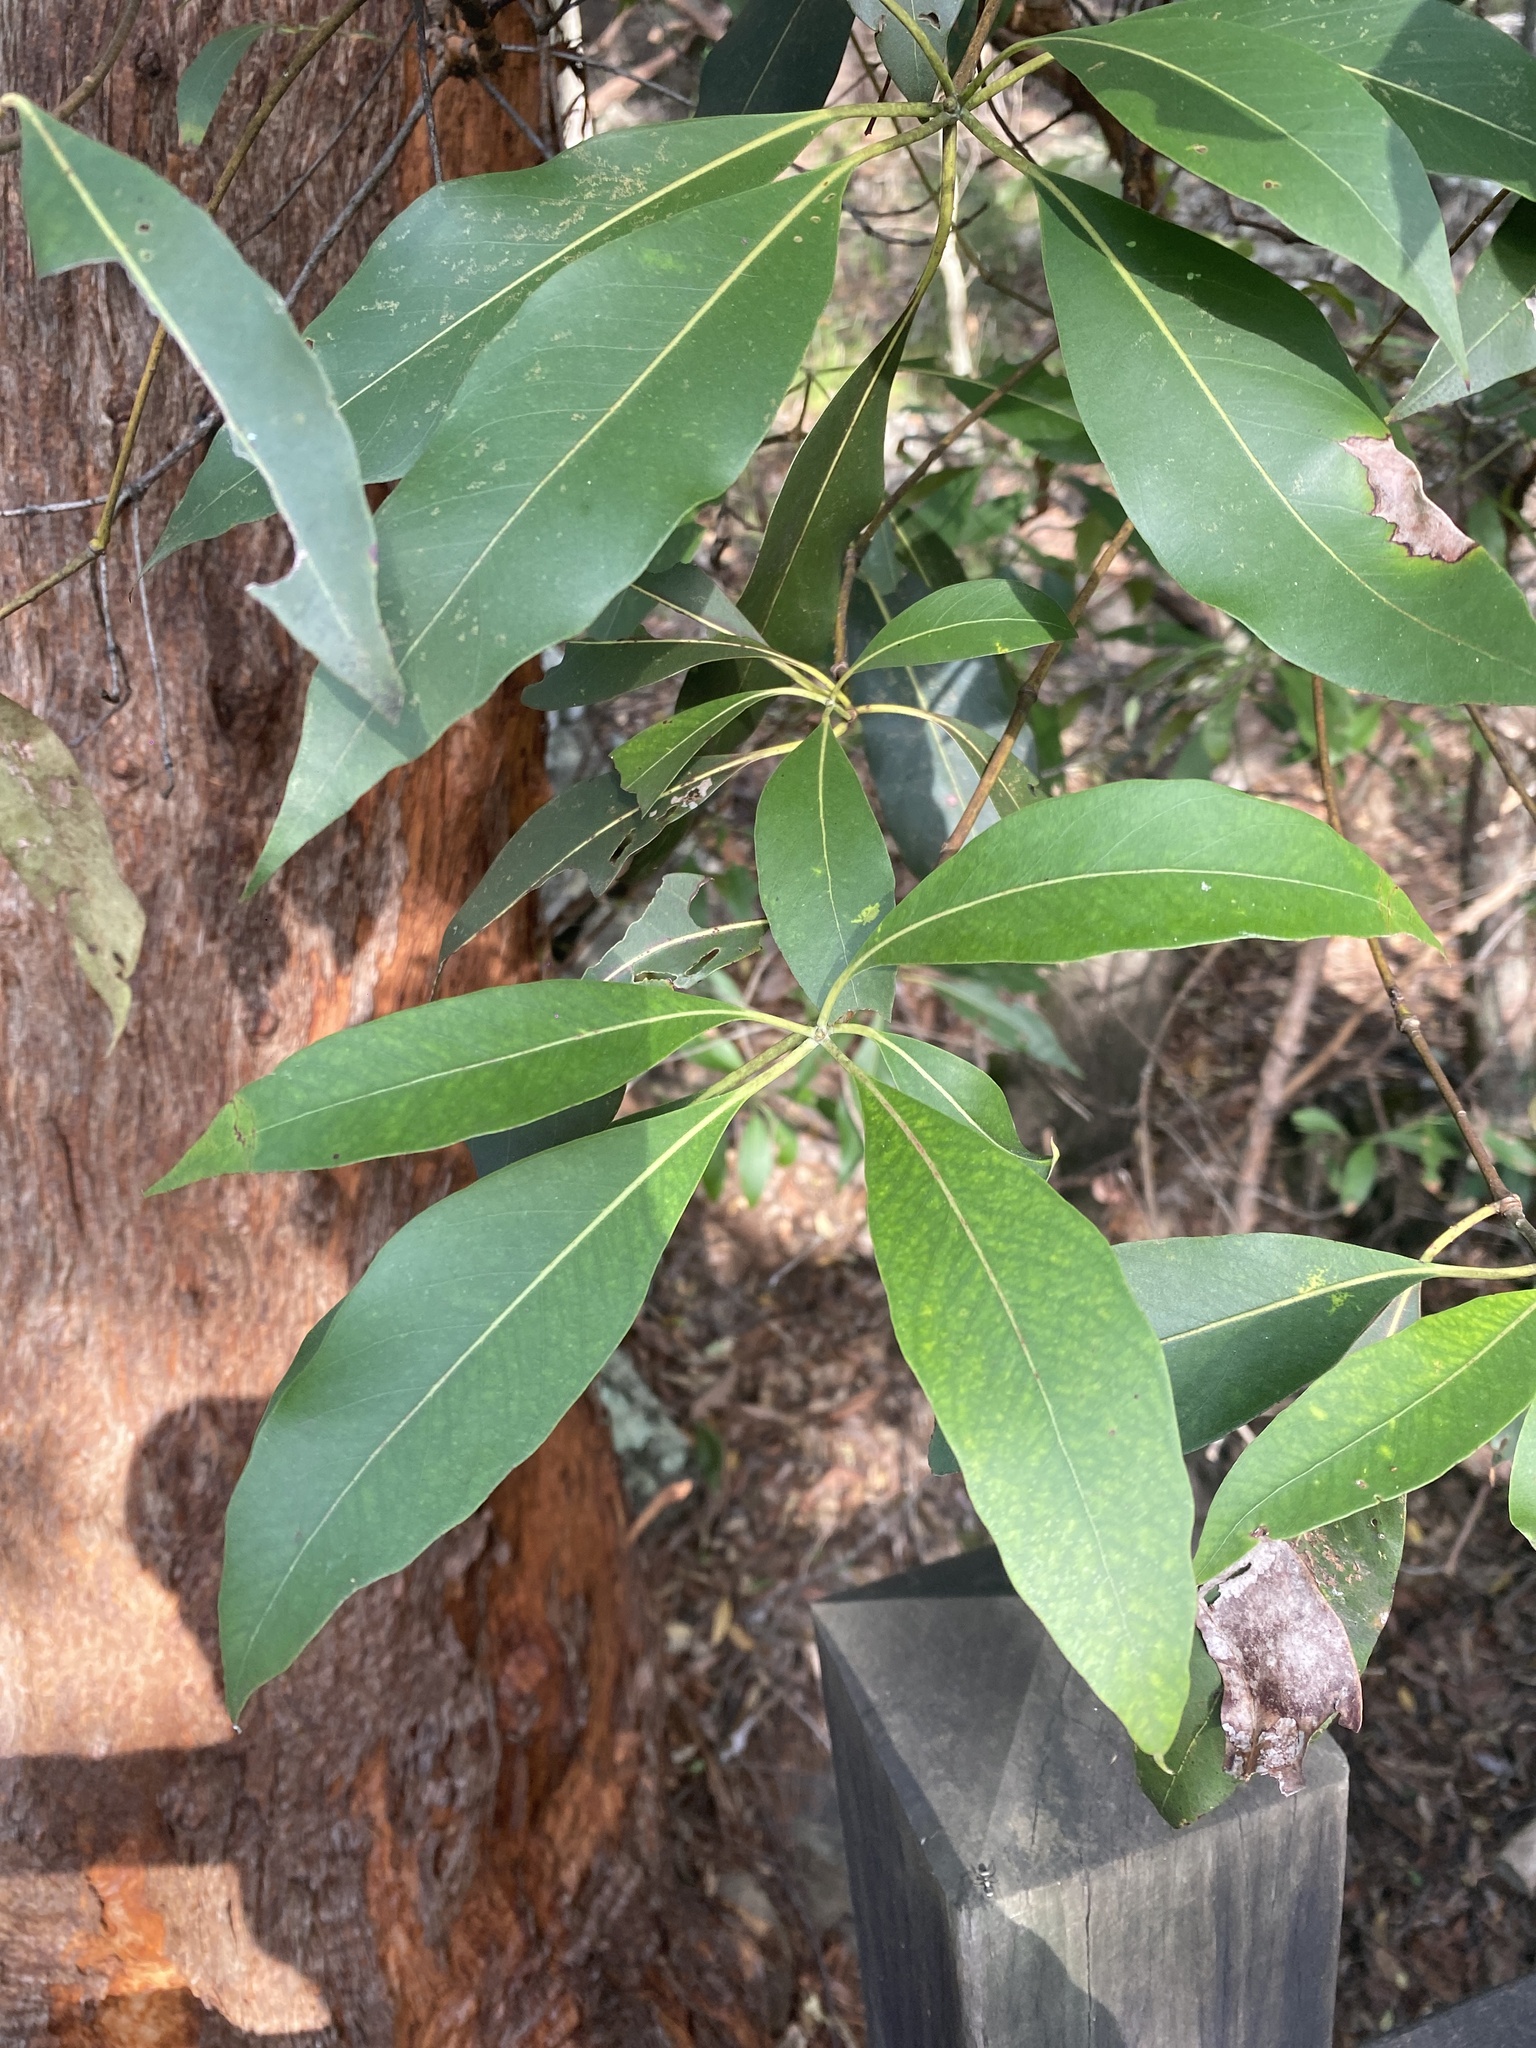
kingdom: Plantae
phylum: Tracheophyta
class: Magnoliopsida
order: Myrtales
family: Myrtaceae
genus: Lophostemon
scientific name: Lophostemon confertus
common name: Brisbane box
